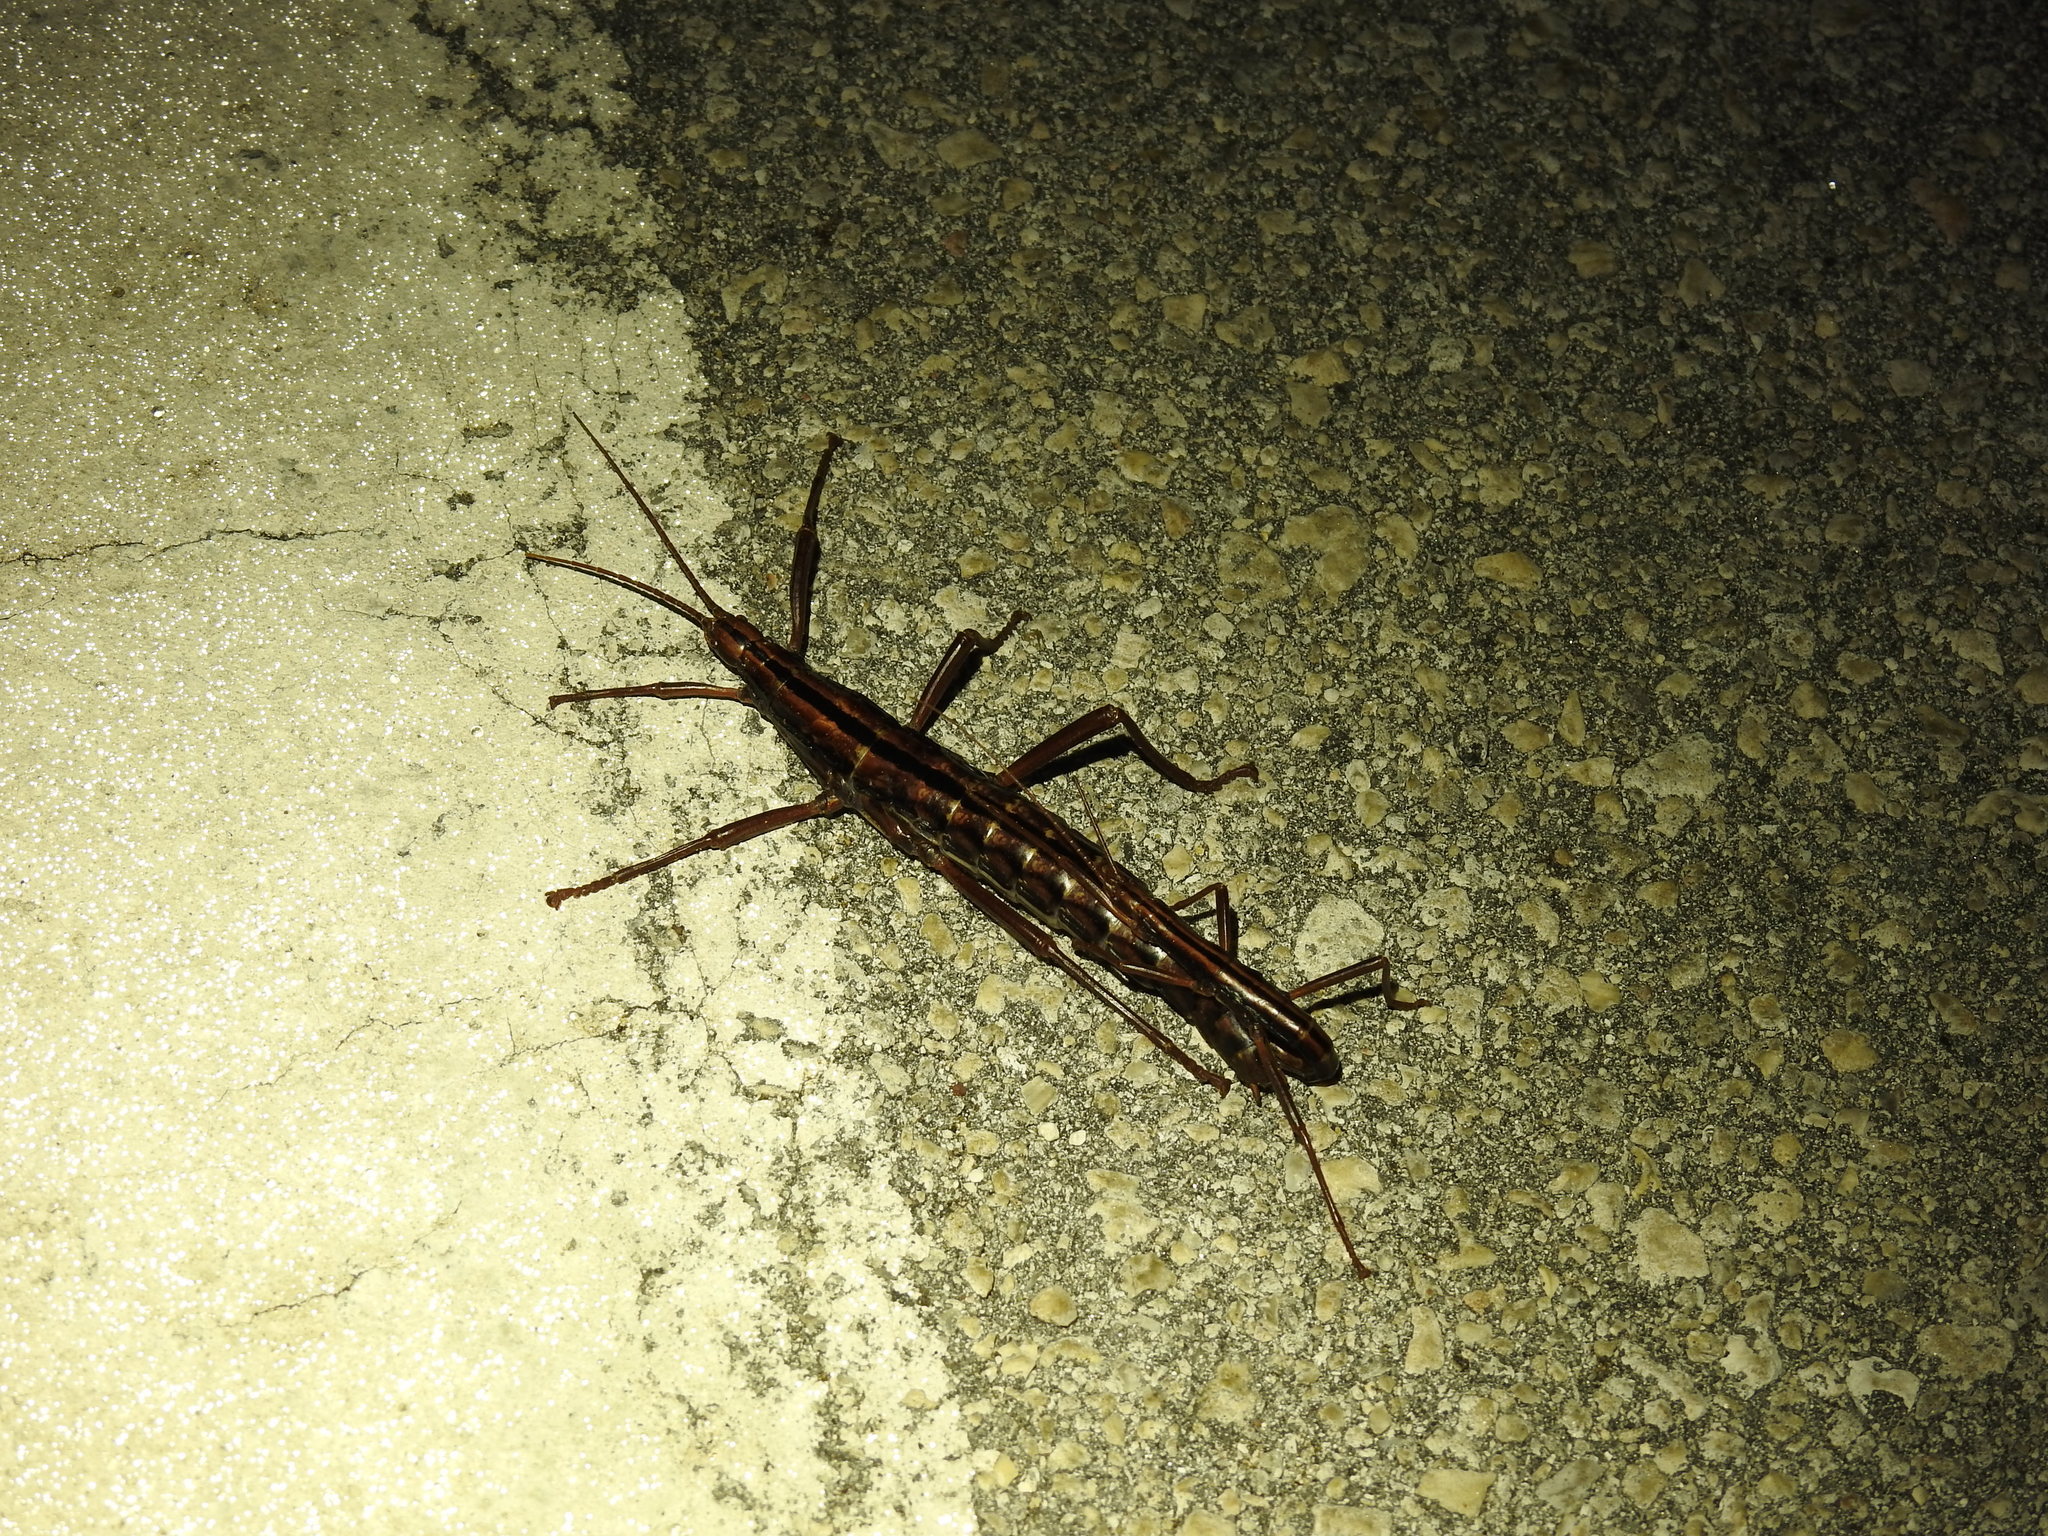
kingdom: Animalia
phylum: Arthropoda
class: Insecta
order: Phasmida
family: Pseudophasmatidae
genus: Anisomorpha
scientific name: Anisomorpha buprestoides
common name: Florida stick insect
